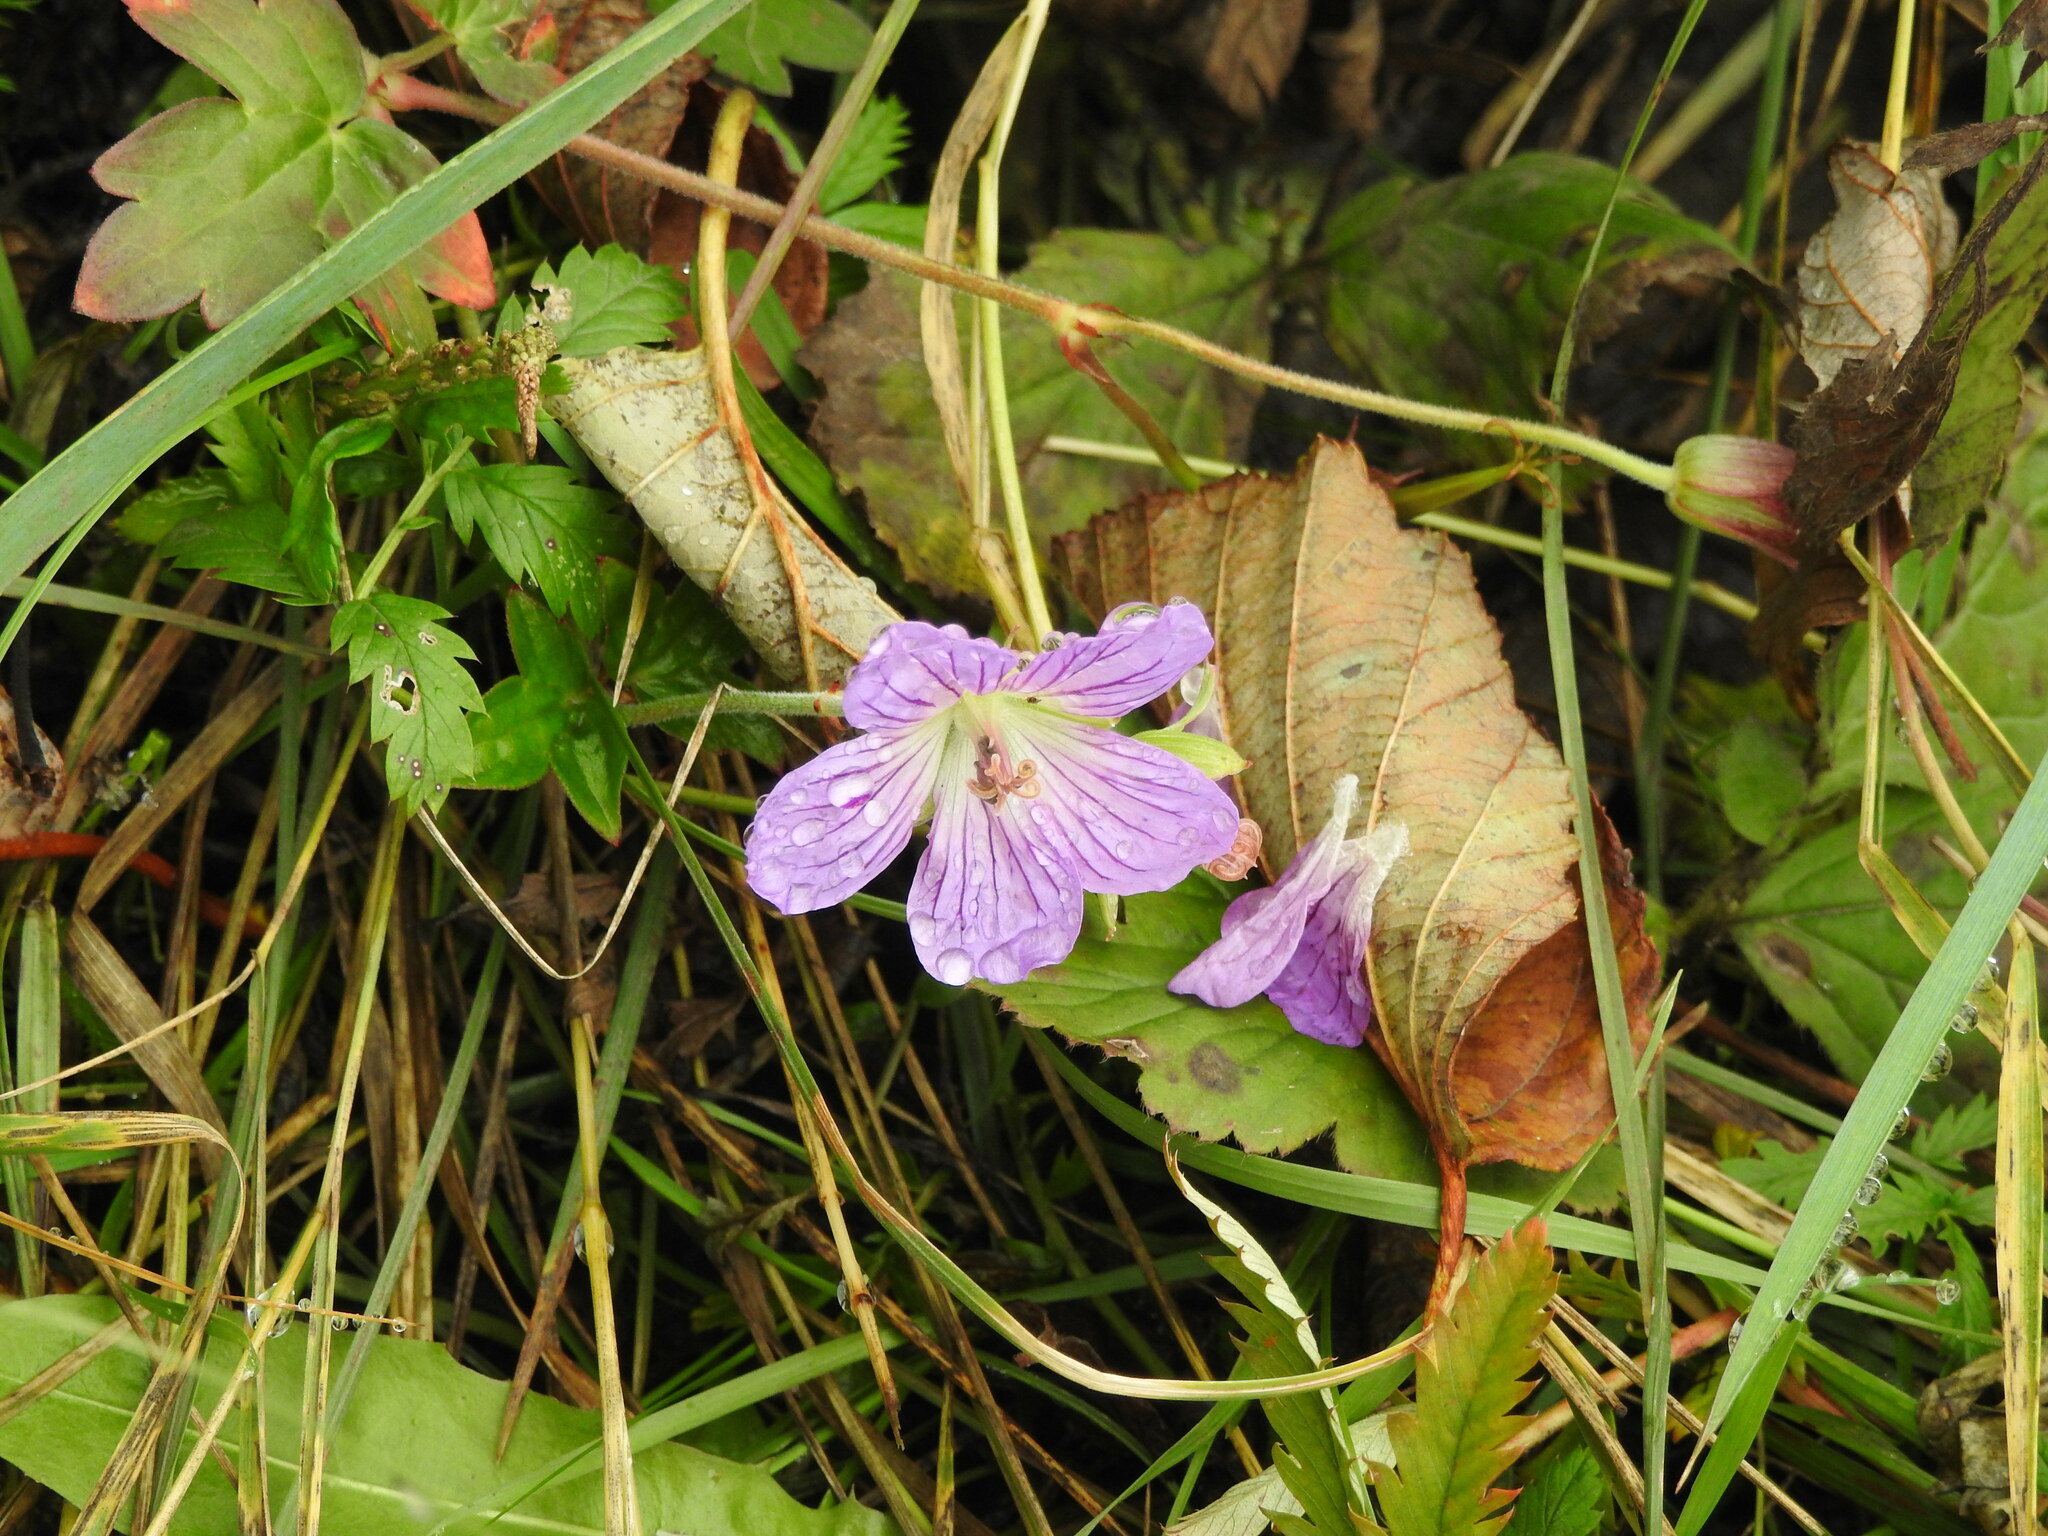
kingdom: Plantae
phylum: Tracheophyta
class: Magnoliopsida
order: Geraniales
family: Geraniaceae
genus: Geranium
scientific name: Geranium wlassovianum
